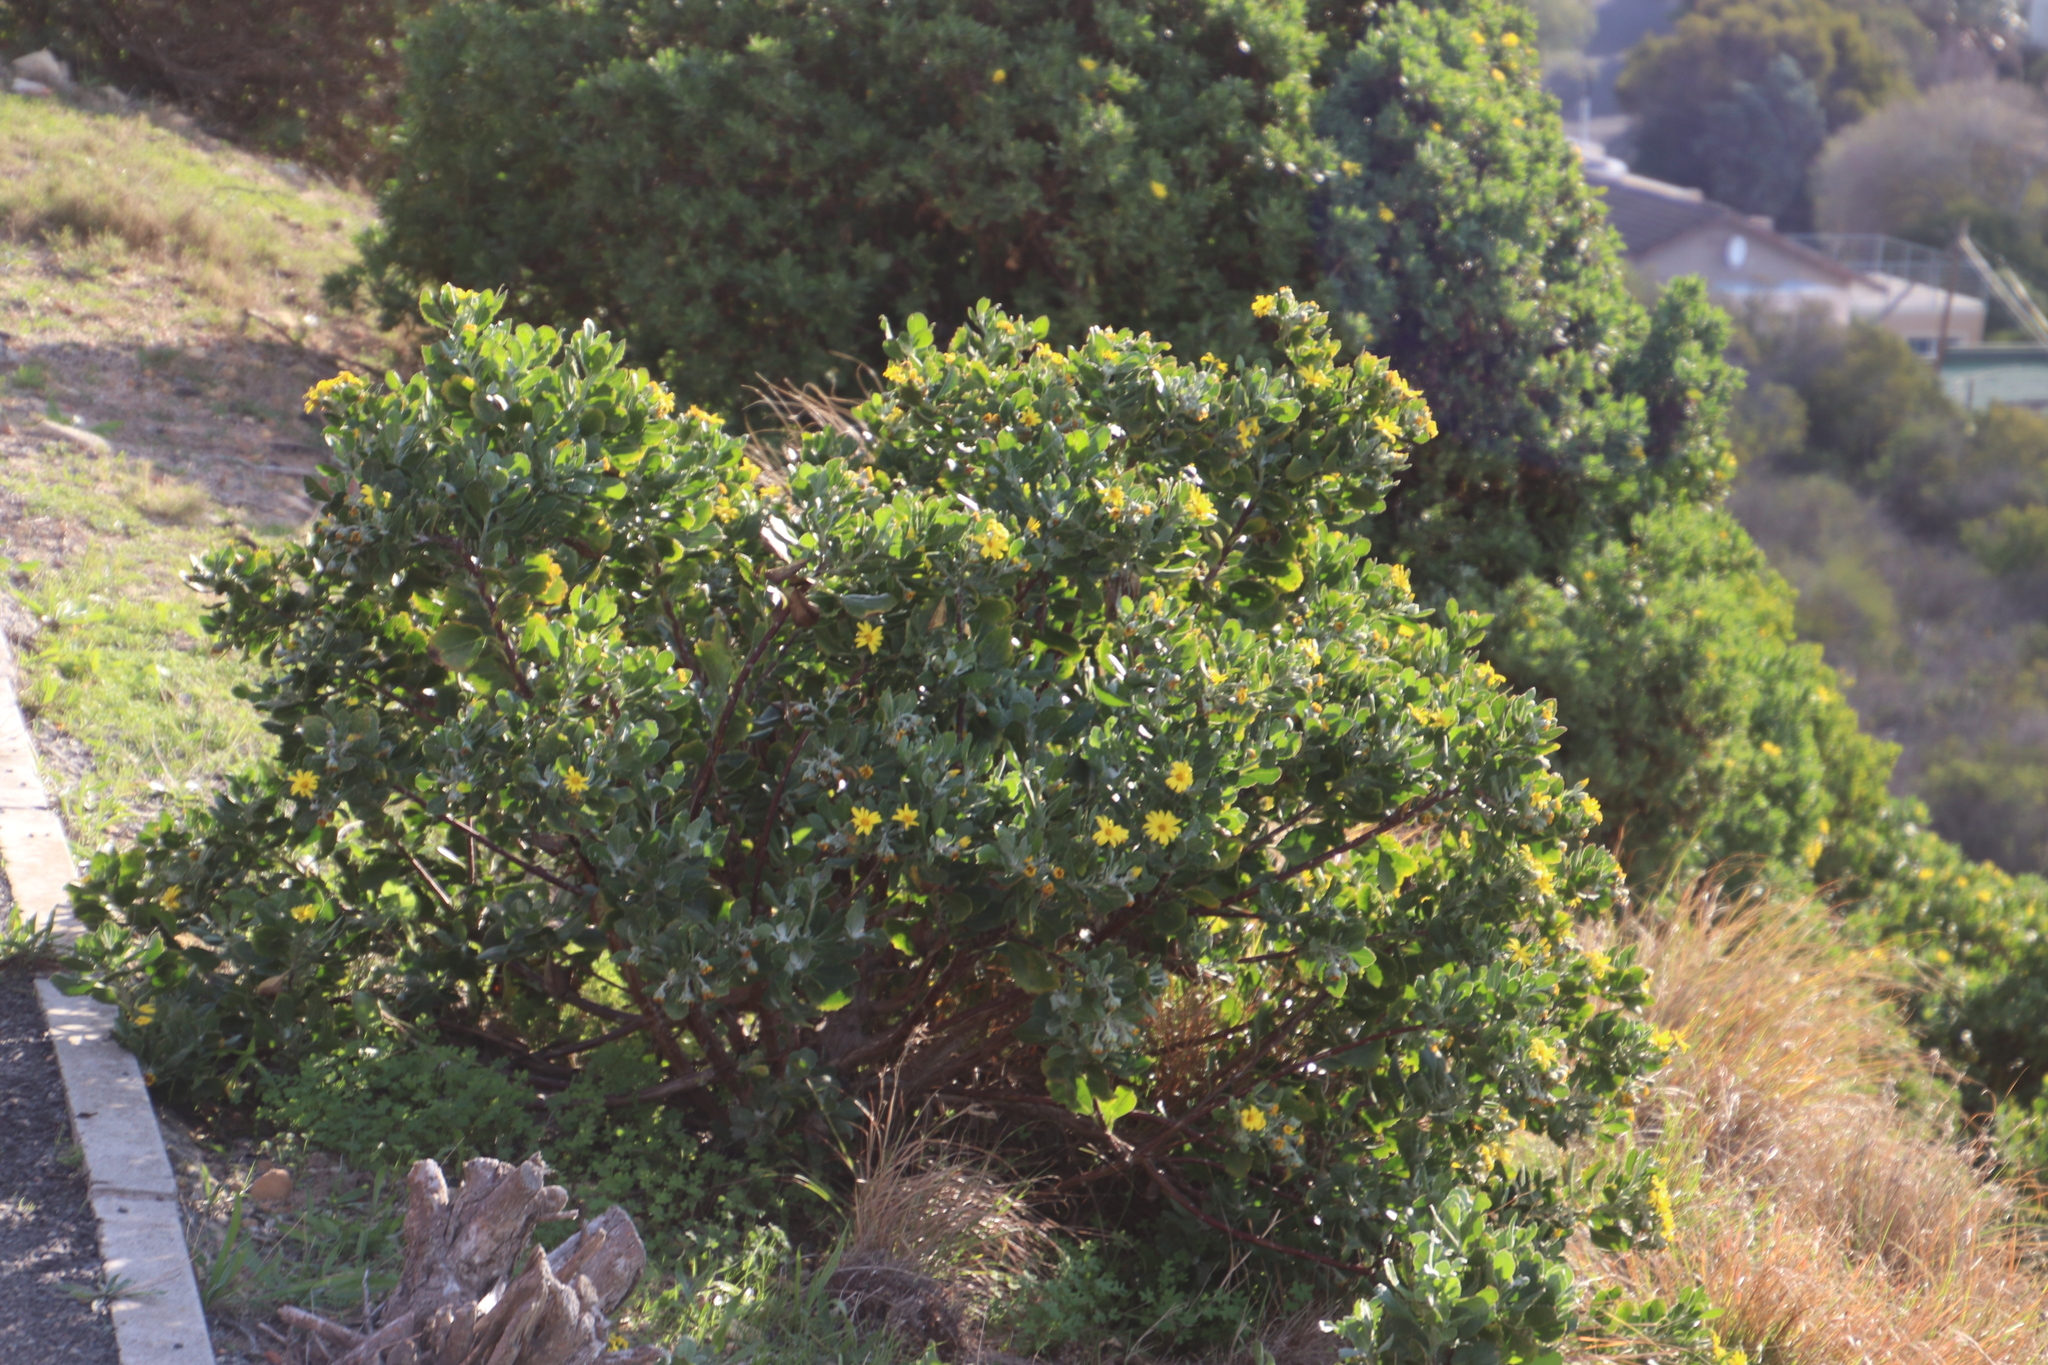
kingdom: Plantae
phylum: Tracheophyta
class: Magnoliopsida
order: Asterales
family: Asteraceae
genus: Osteospermum
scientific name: Osteospermum moniliferum
